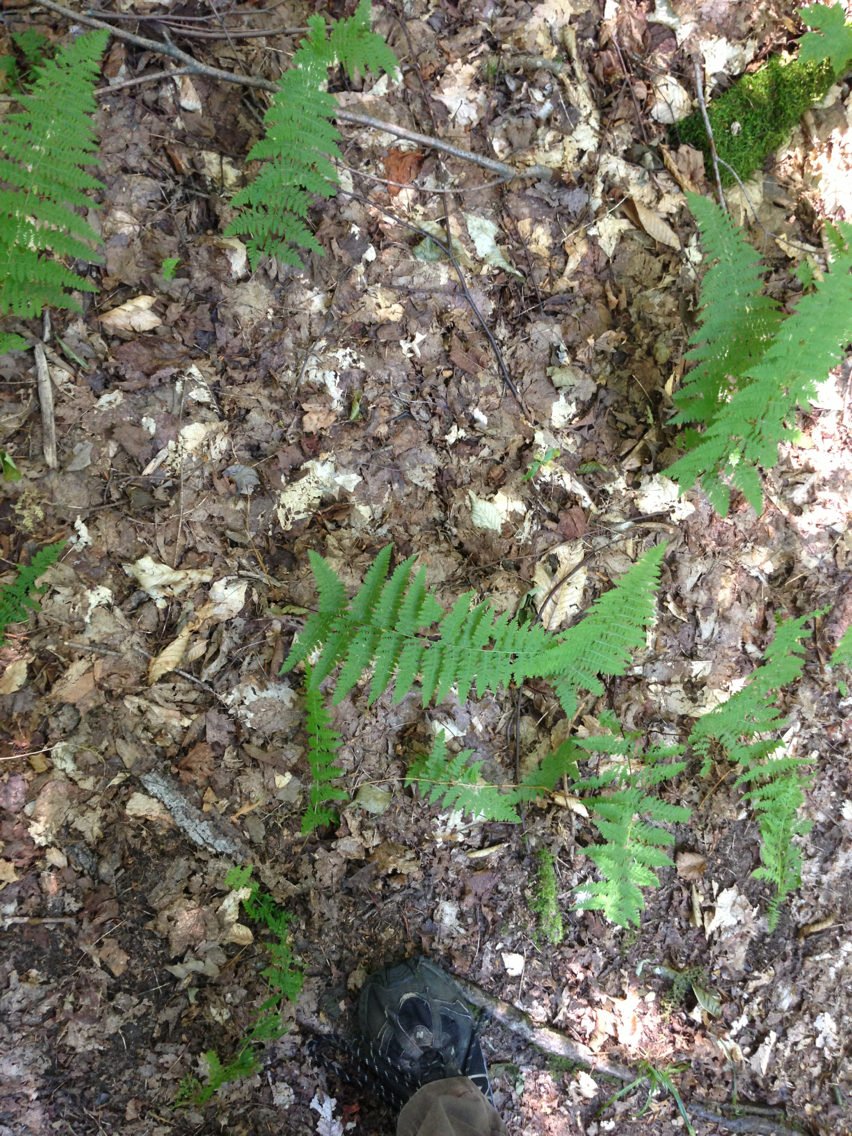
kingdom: Plantae
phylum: Tracheophyta
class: Polypodiopsida
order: Polypodiales
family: Dennstaedtiaceae
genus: Sitobolium
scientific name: Sitobolium punctilobum
